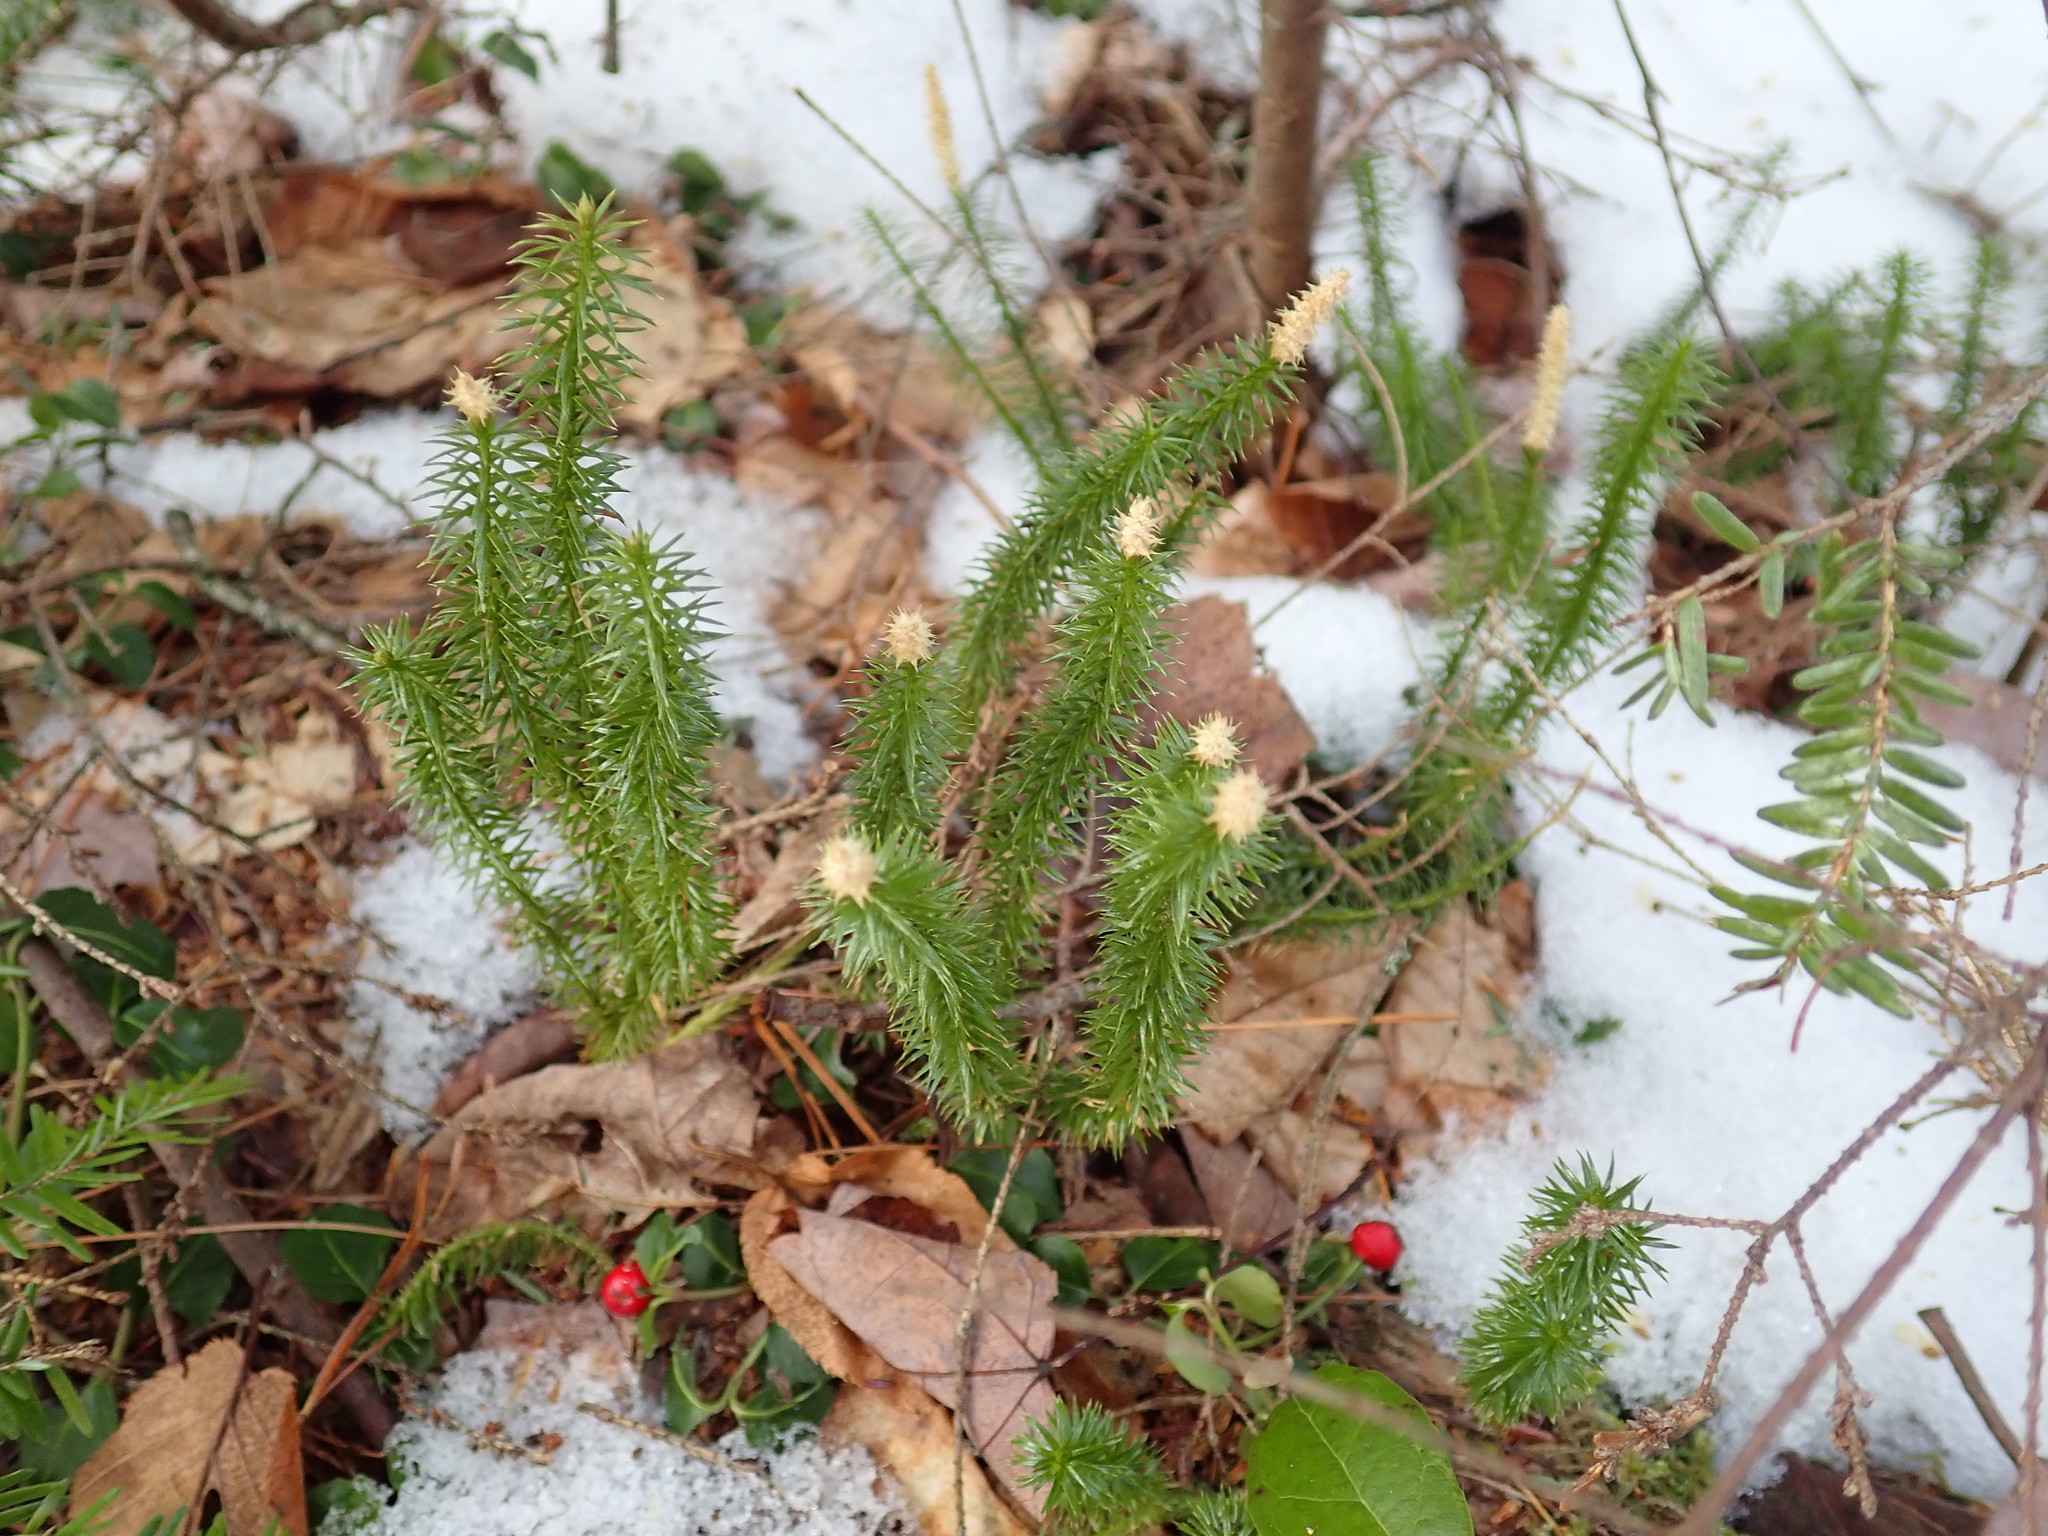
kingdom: Plantae
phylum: Tracheophyta
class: Lycopodiopsida
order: Lycopodiales
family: Lycopodiaceae
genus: Spinulum
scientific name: Spinulum annotinum
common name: Interrupted club-moss
